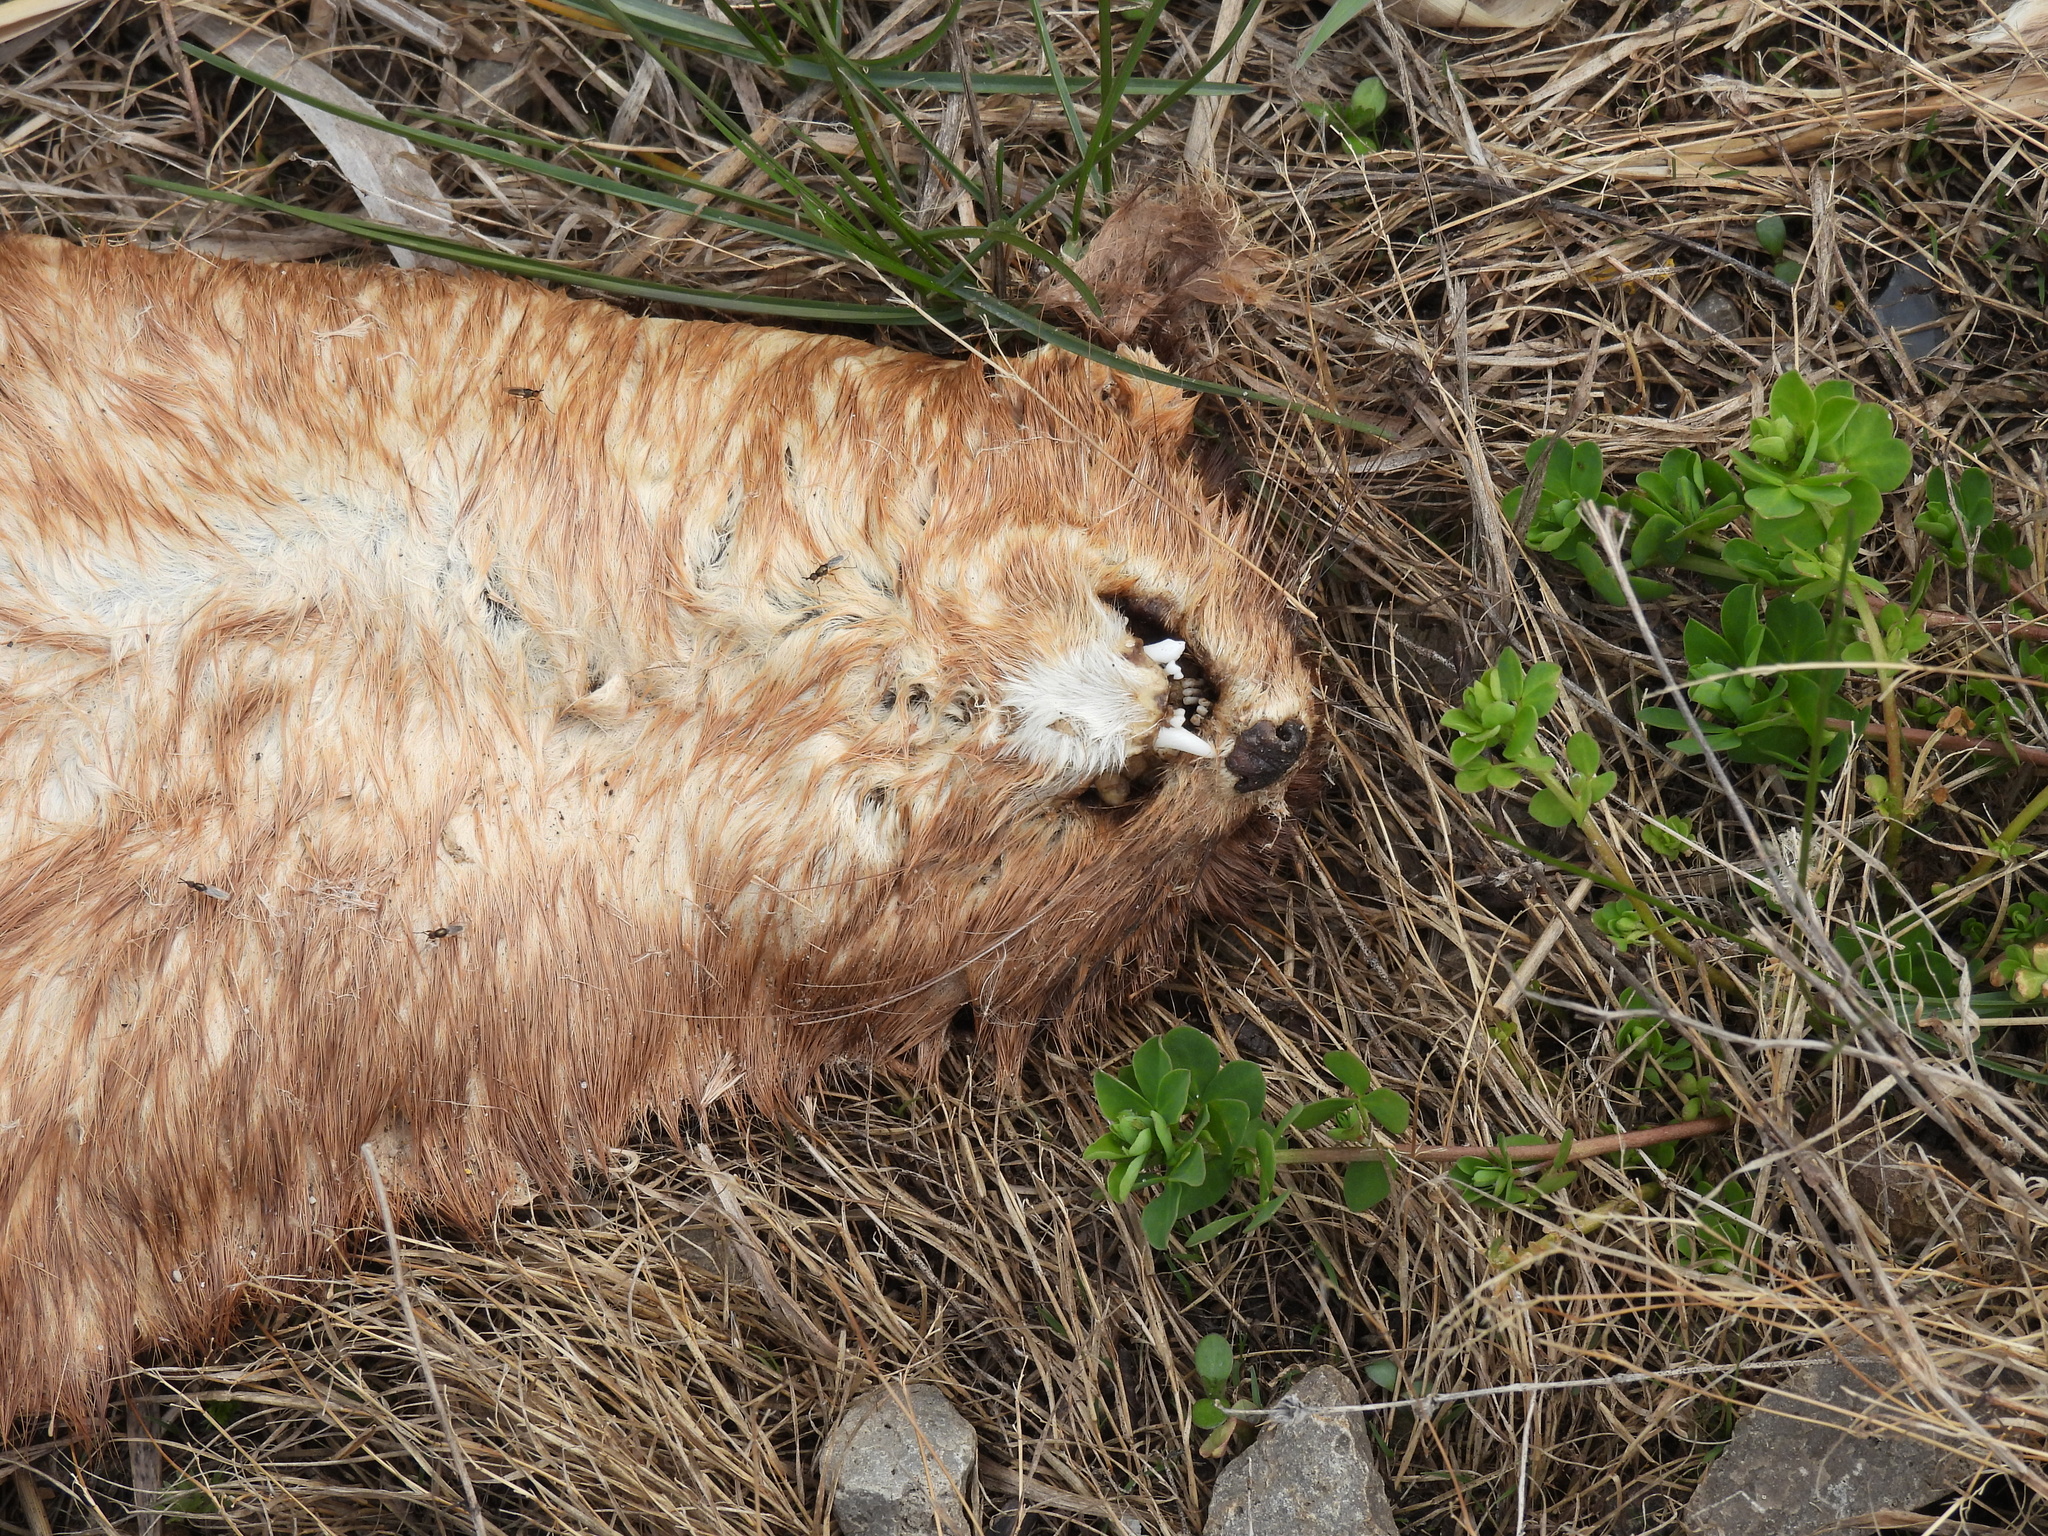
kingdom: Animalia
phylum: Chordata
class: Mammalia
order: Carnivora
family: Mustelidae
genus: Mustela
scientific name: Mustela
